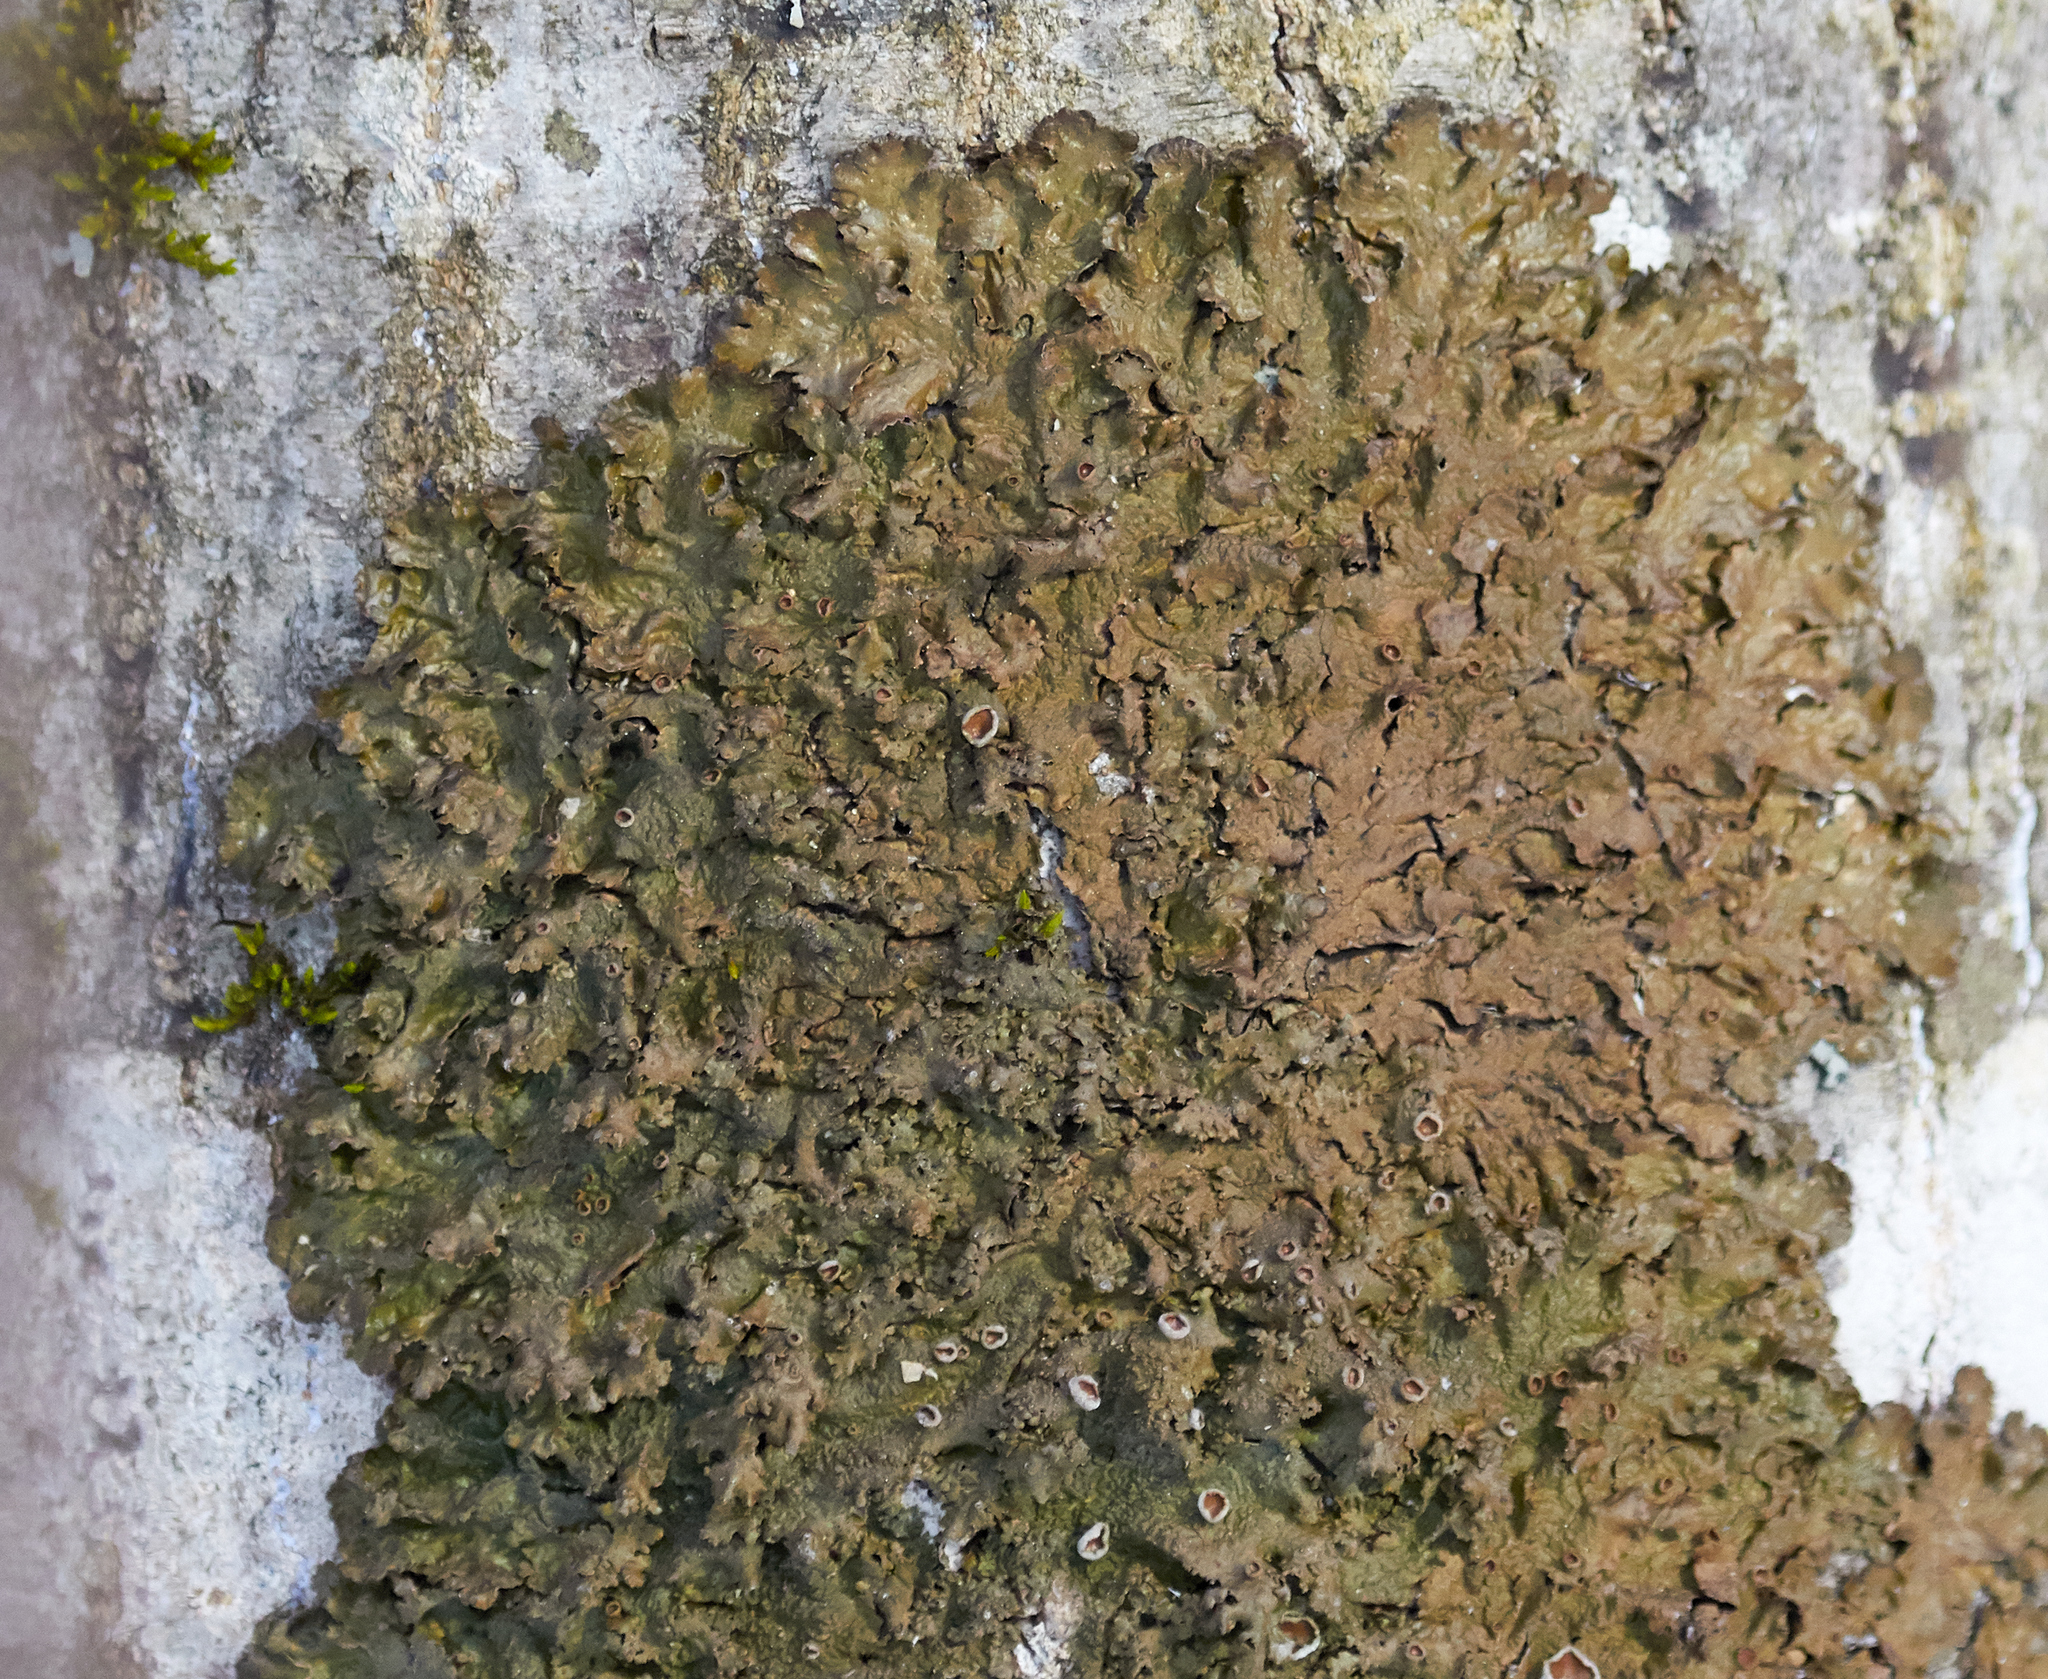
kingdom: Fungi
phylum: Ascomycota
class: Lecanoromycetes
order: Lecanorales
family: Parmeliaceae
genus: Melanohalea
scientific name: Melanohalea olivacea
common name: Spotted camouflage lichen
